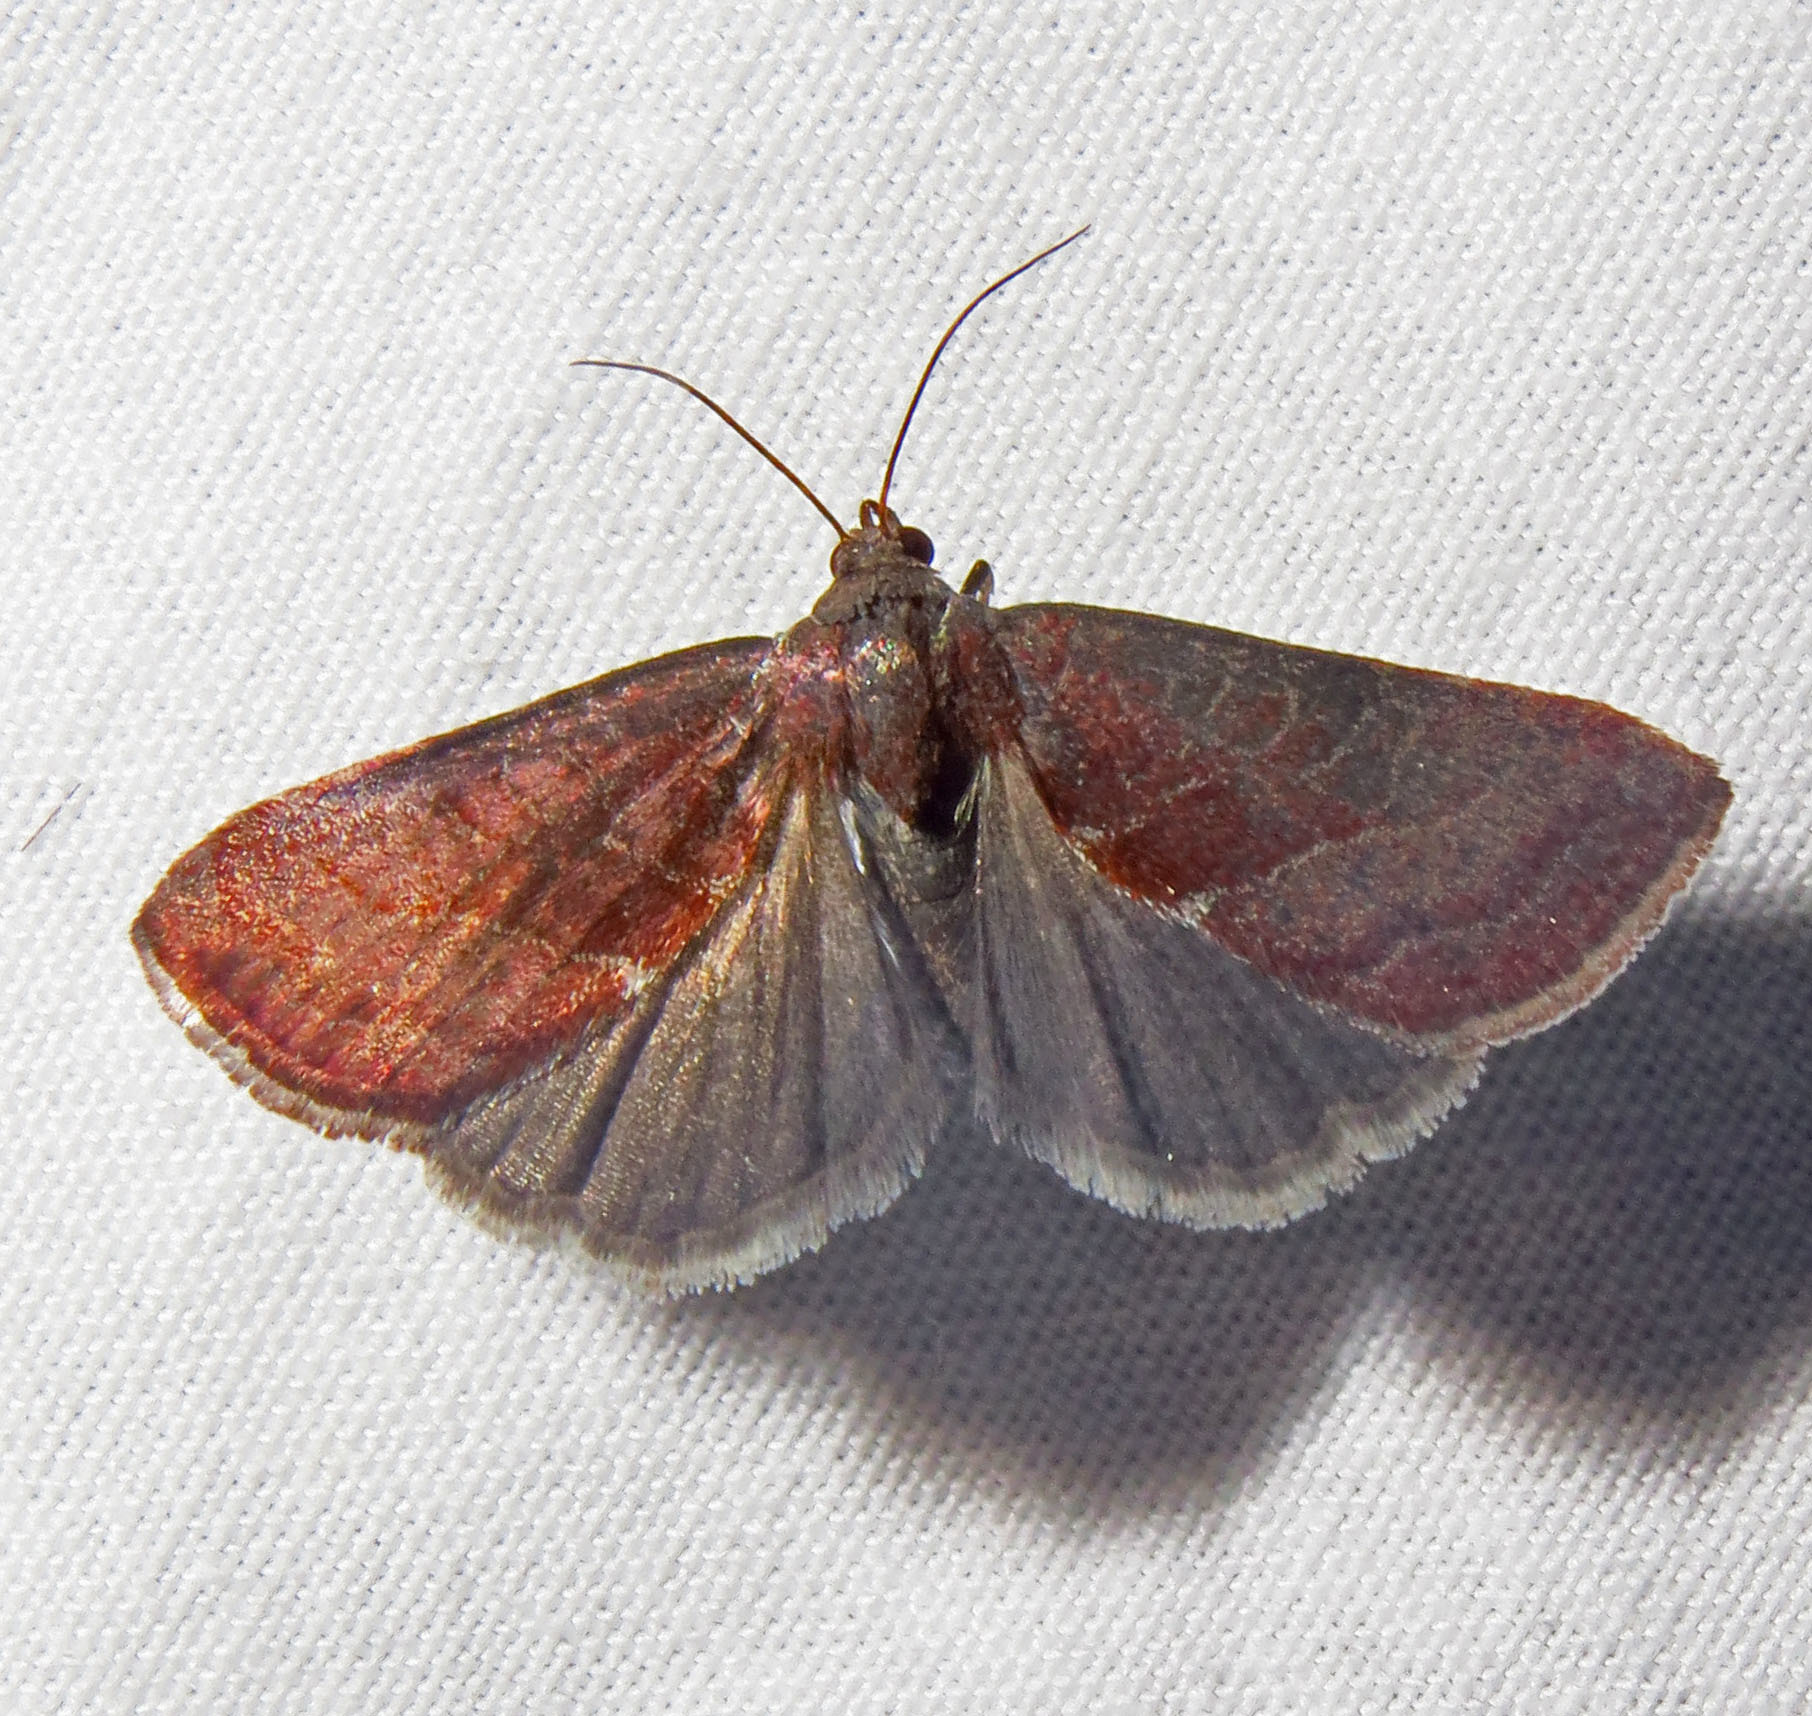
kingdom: Animalia
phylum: Arthropoda
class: Insecta
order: Lepidoptera
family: Noctuidae
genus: Galgula
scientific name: Galgula partita
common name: Wedgeling
